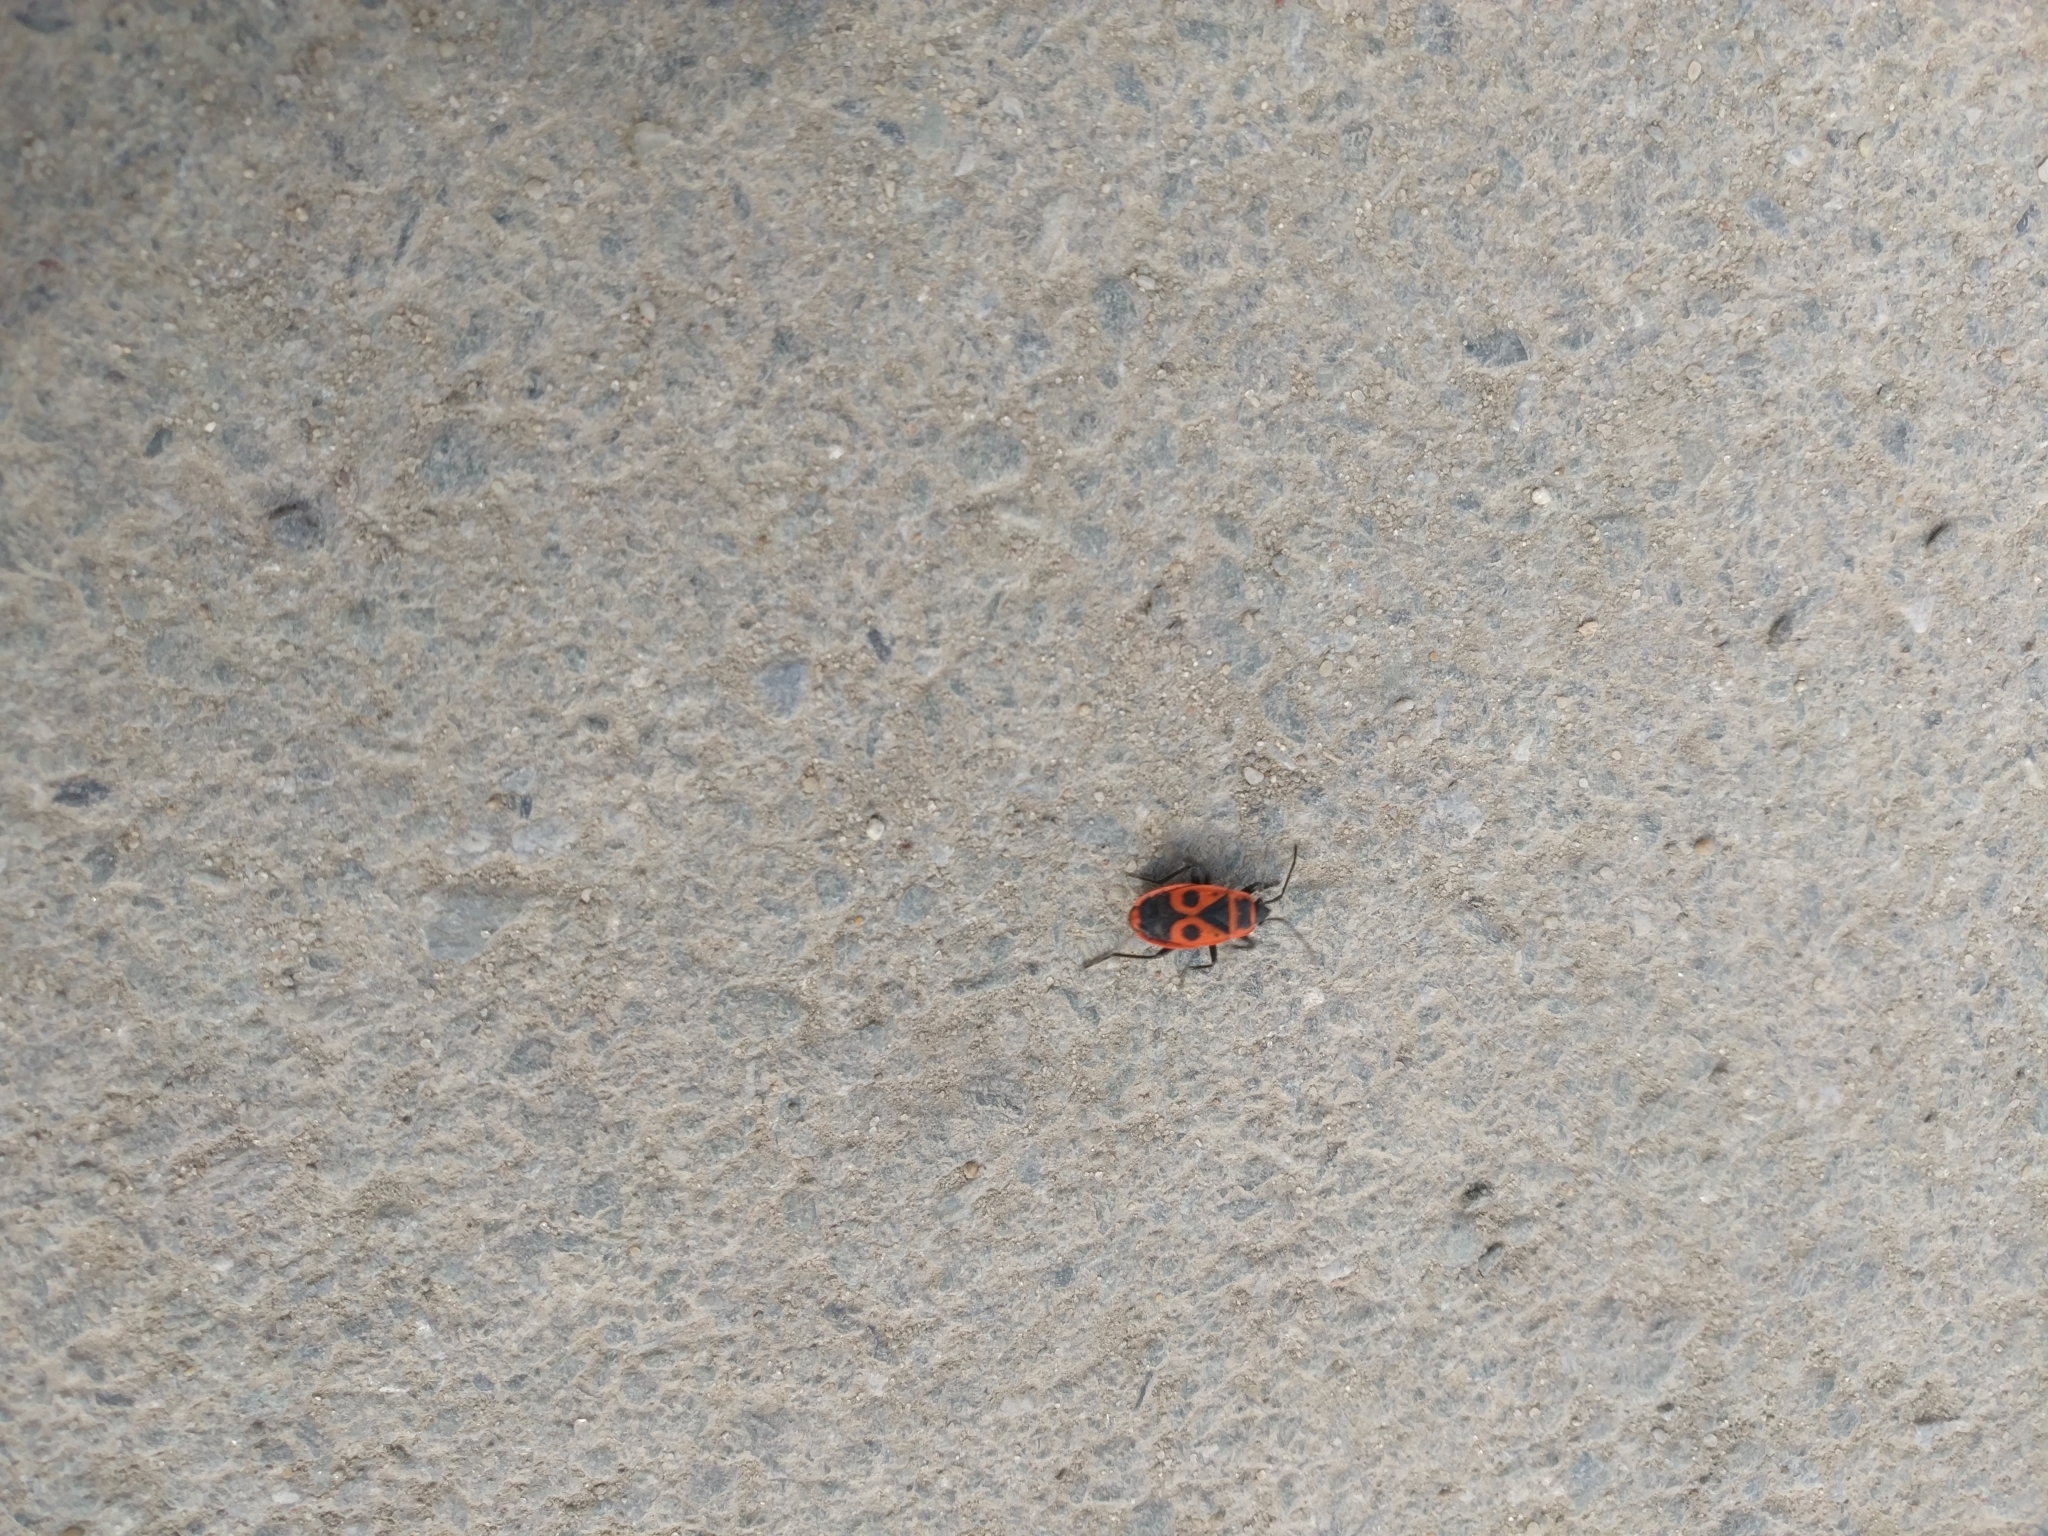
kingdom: Animalia
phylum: Arthropoda
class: Insecta
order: Hemiptera
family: Pyrrhocoridae
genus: Pyrrhocoris
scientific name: Pyrrhocoris apterus
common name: Firebug
